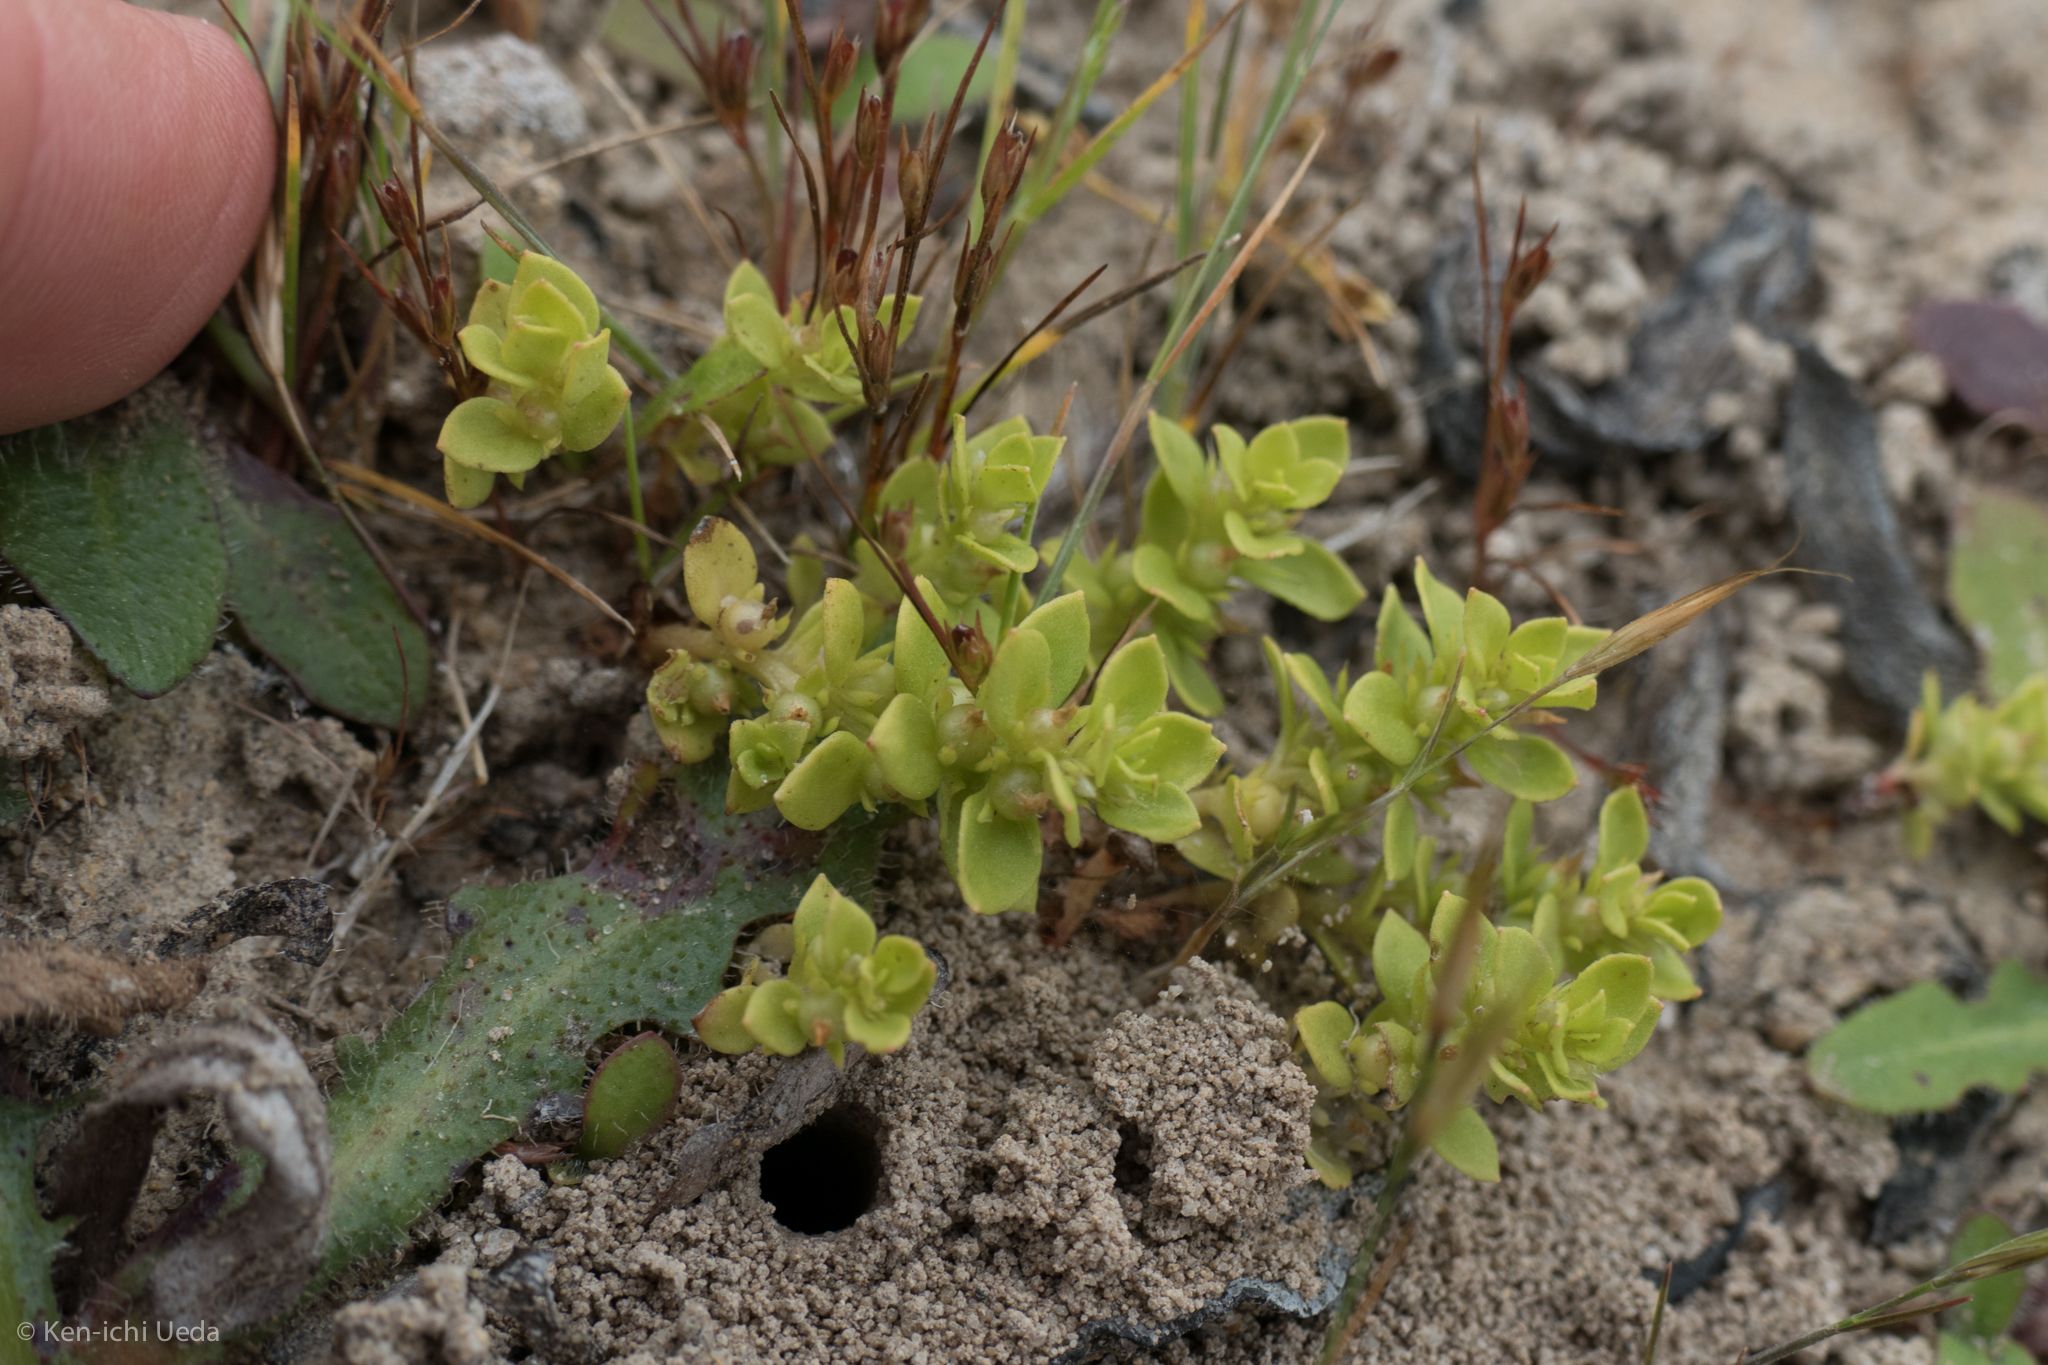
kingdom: Plantae
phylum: Tracheophyta
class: Magnoliopsida
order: Ericales
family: Primulaceae
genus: Lysimachia
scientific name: Lysimachia minima
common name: Chaffweed
